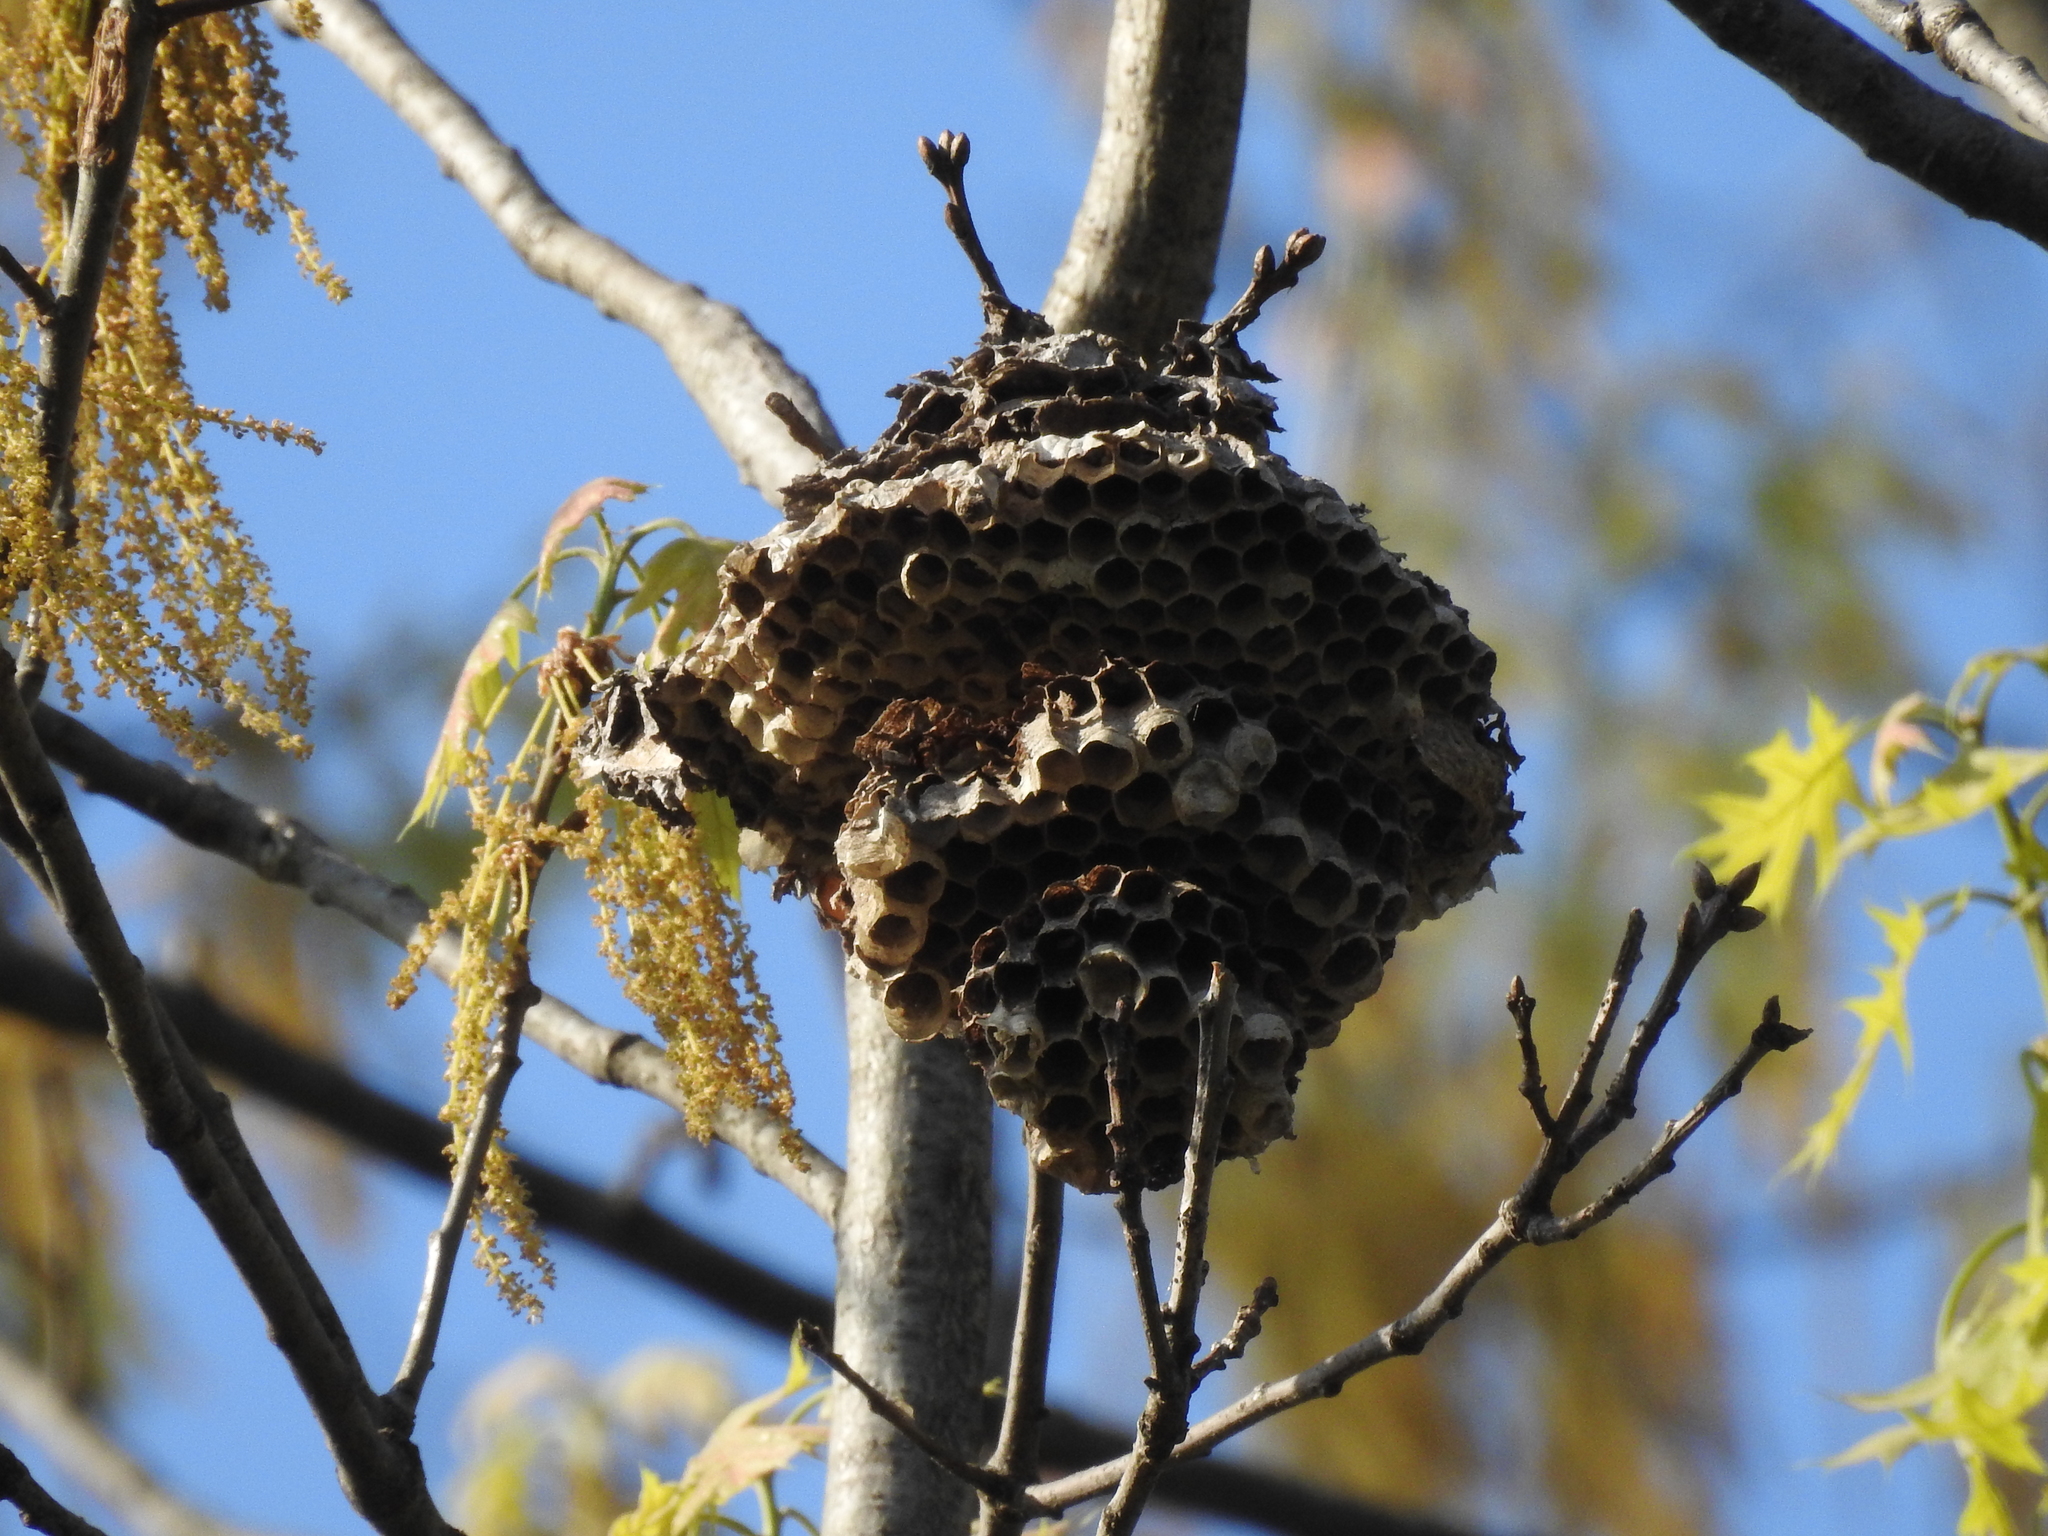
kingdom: Animalia
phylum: Arthropoda
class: Insecta
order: Hymenoptera
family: Vespidae
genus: Dolichovespula
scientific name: Dolichovespula
